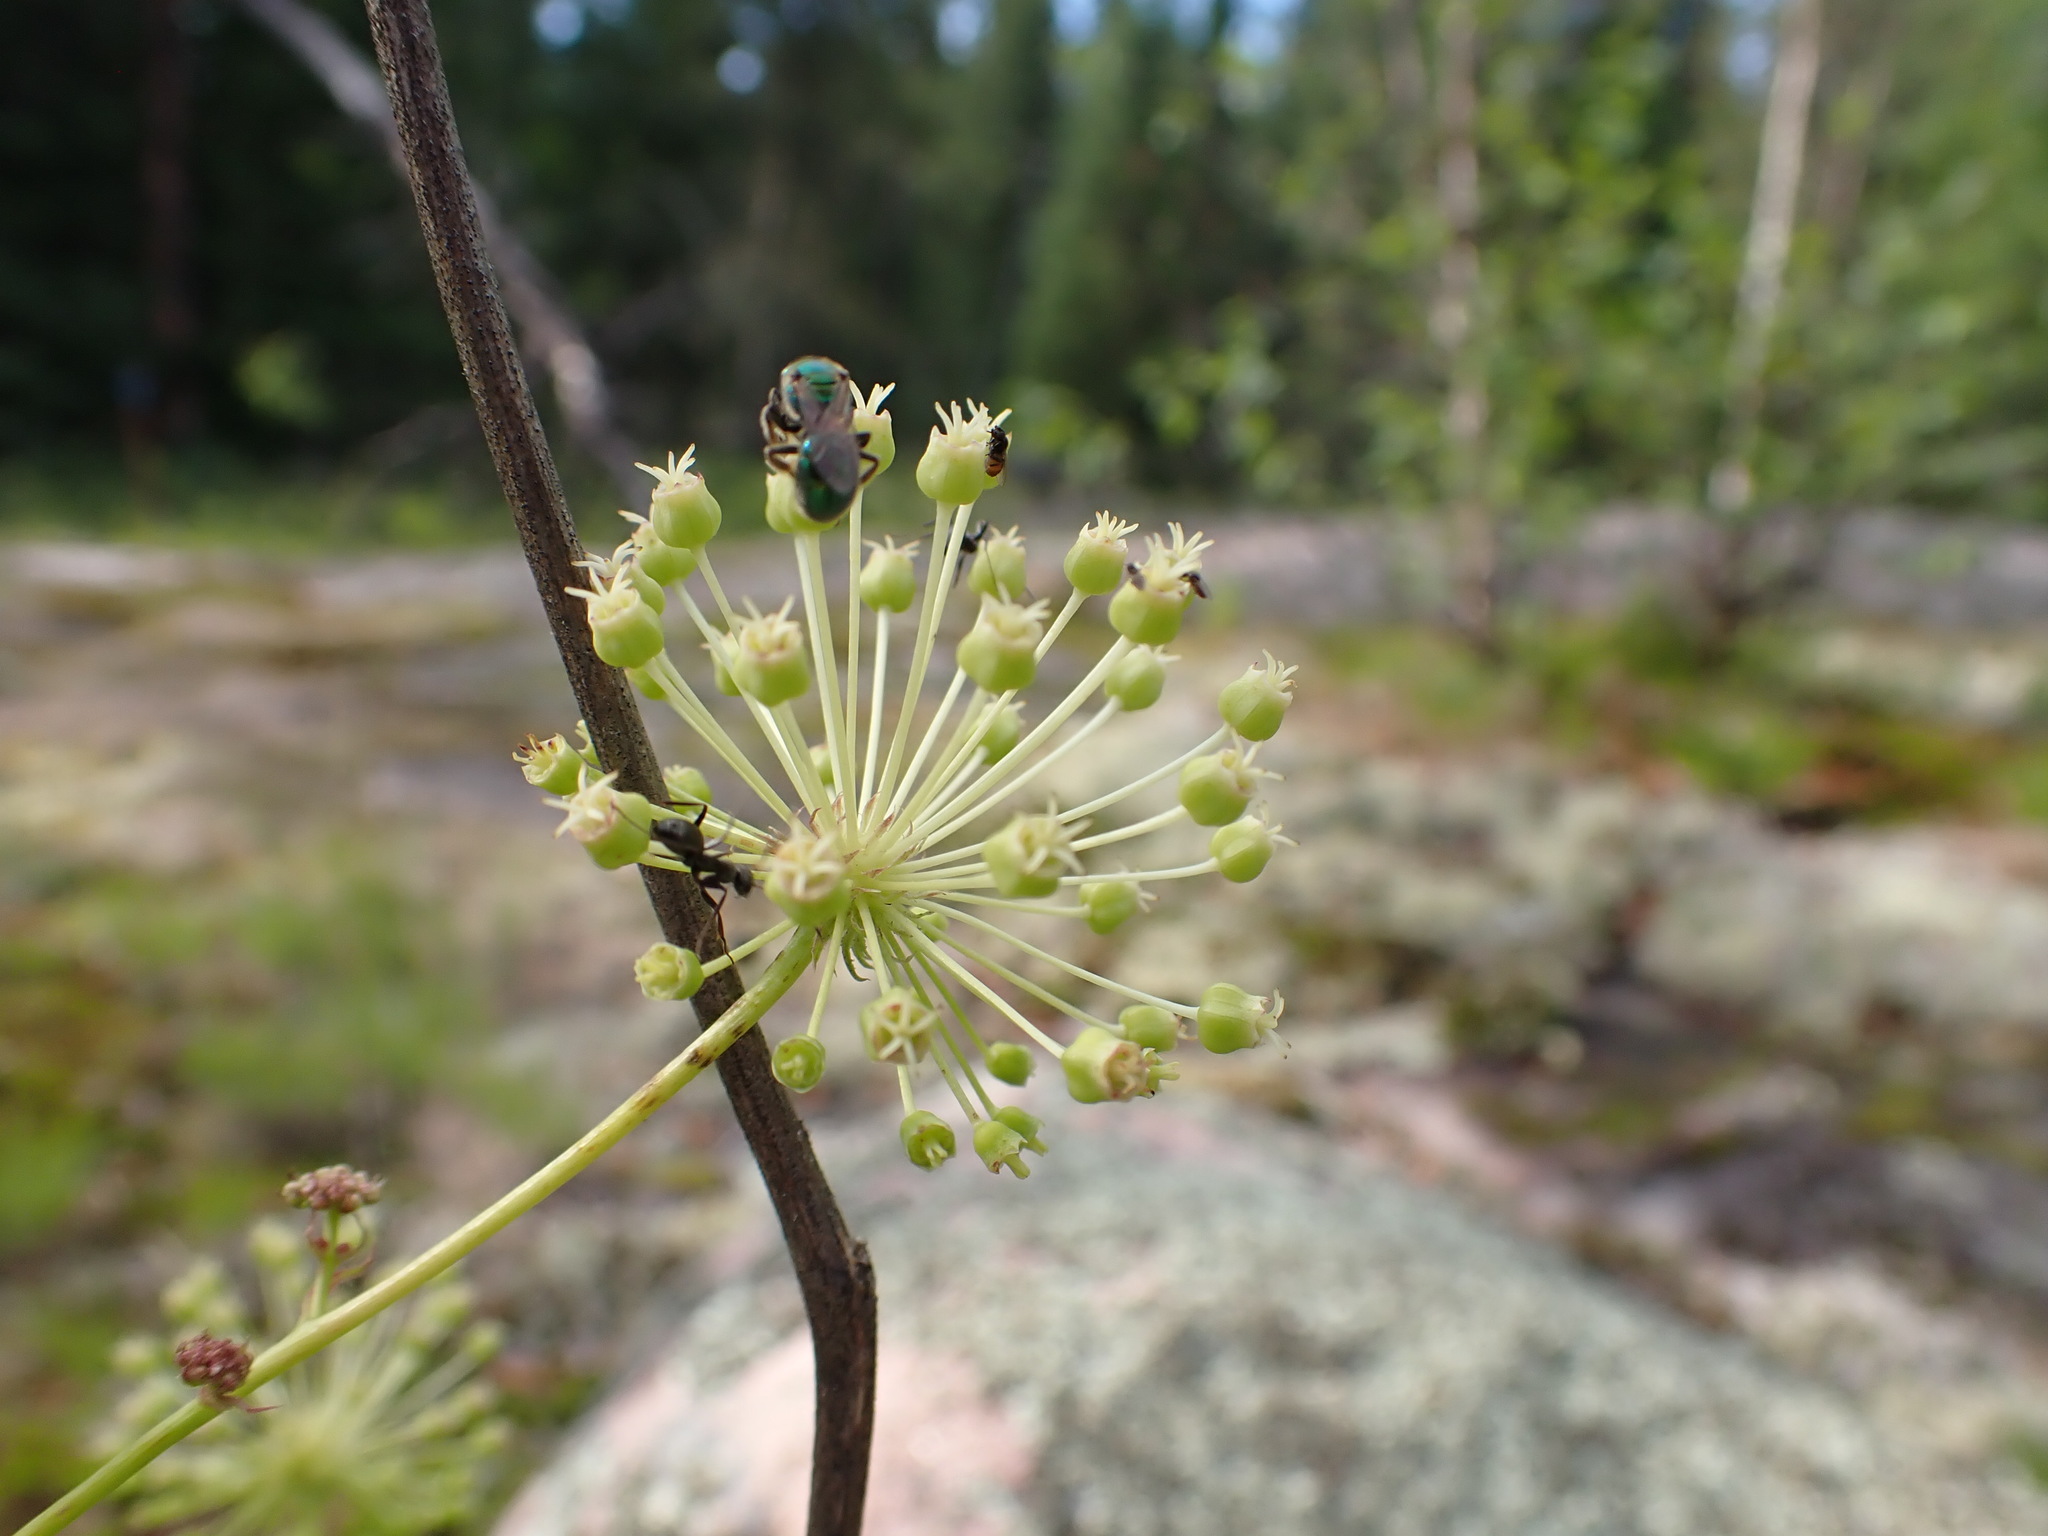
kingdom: Plantae
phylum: Tracheophyta
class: Magnoliopsida
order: Apiales
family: Araliaceae
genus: Aralia
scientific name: Aralia hispida
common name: Bristly sarsaparilla
